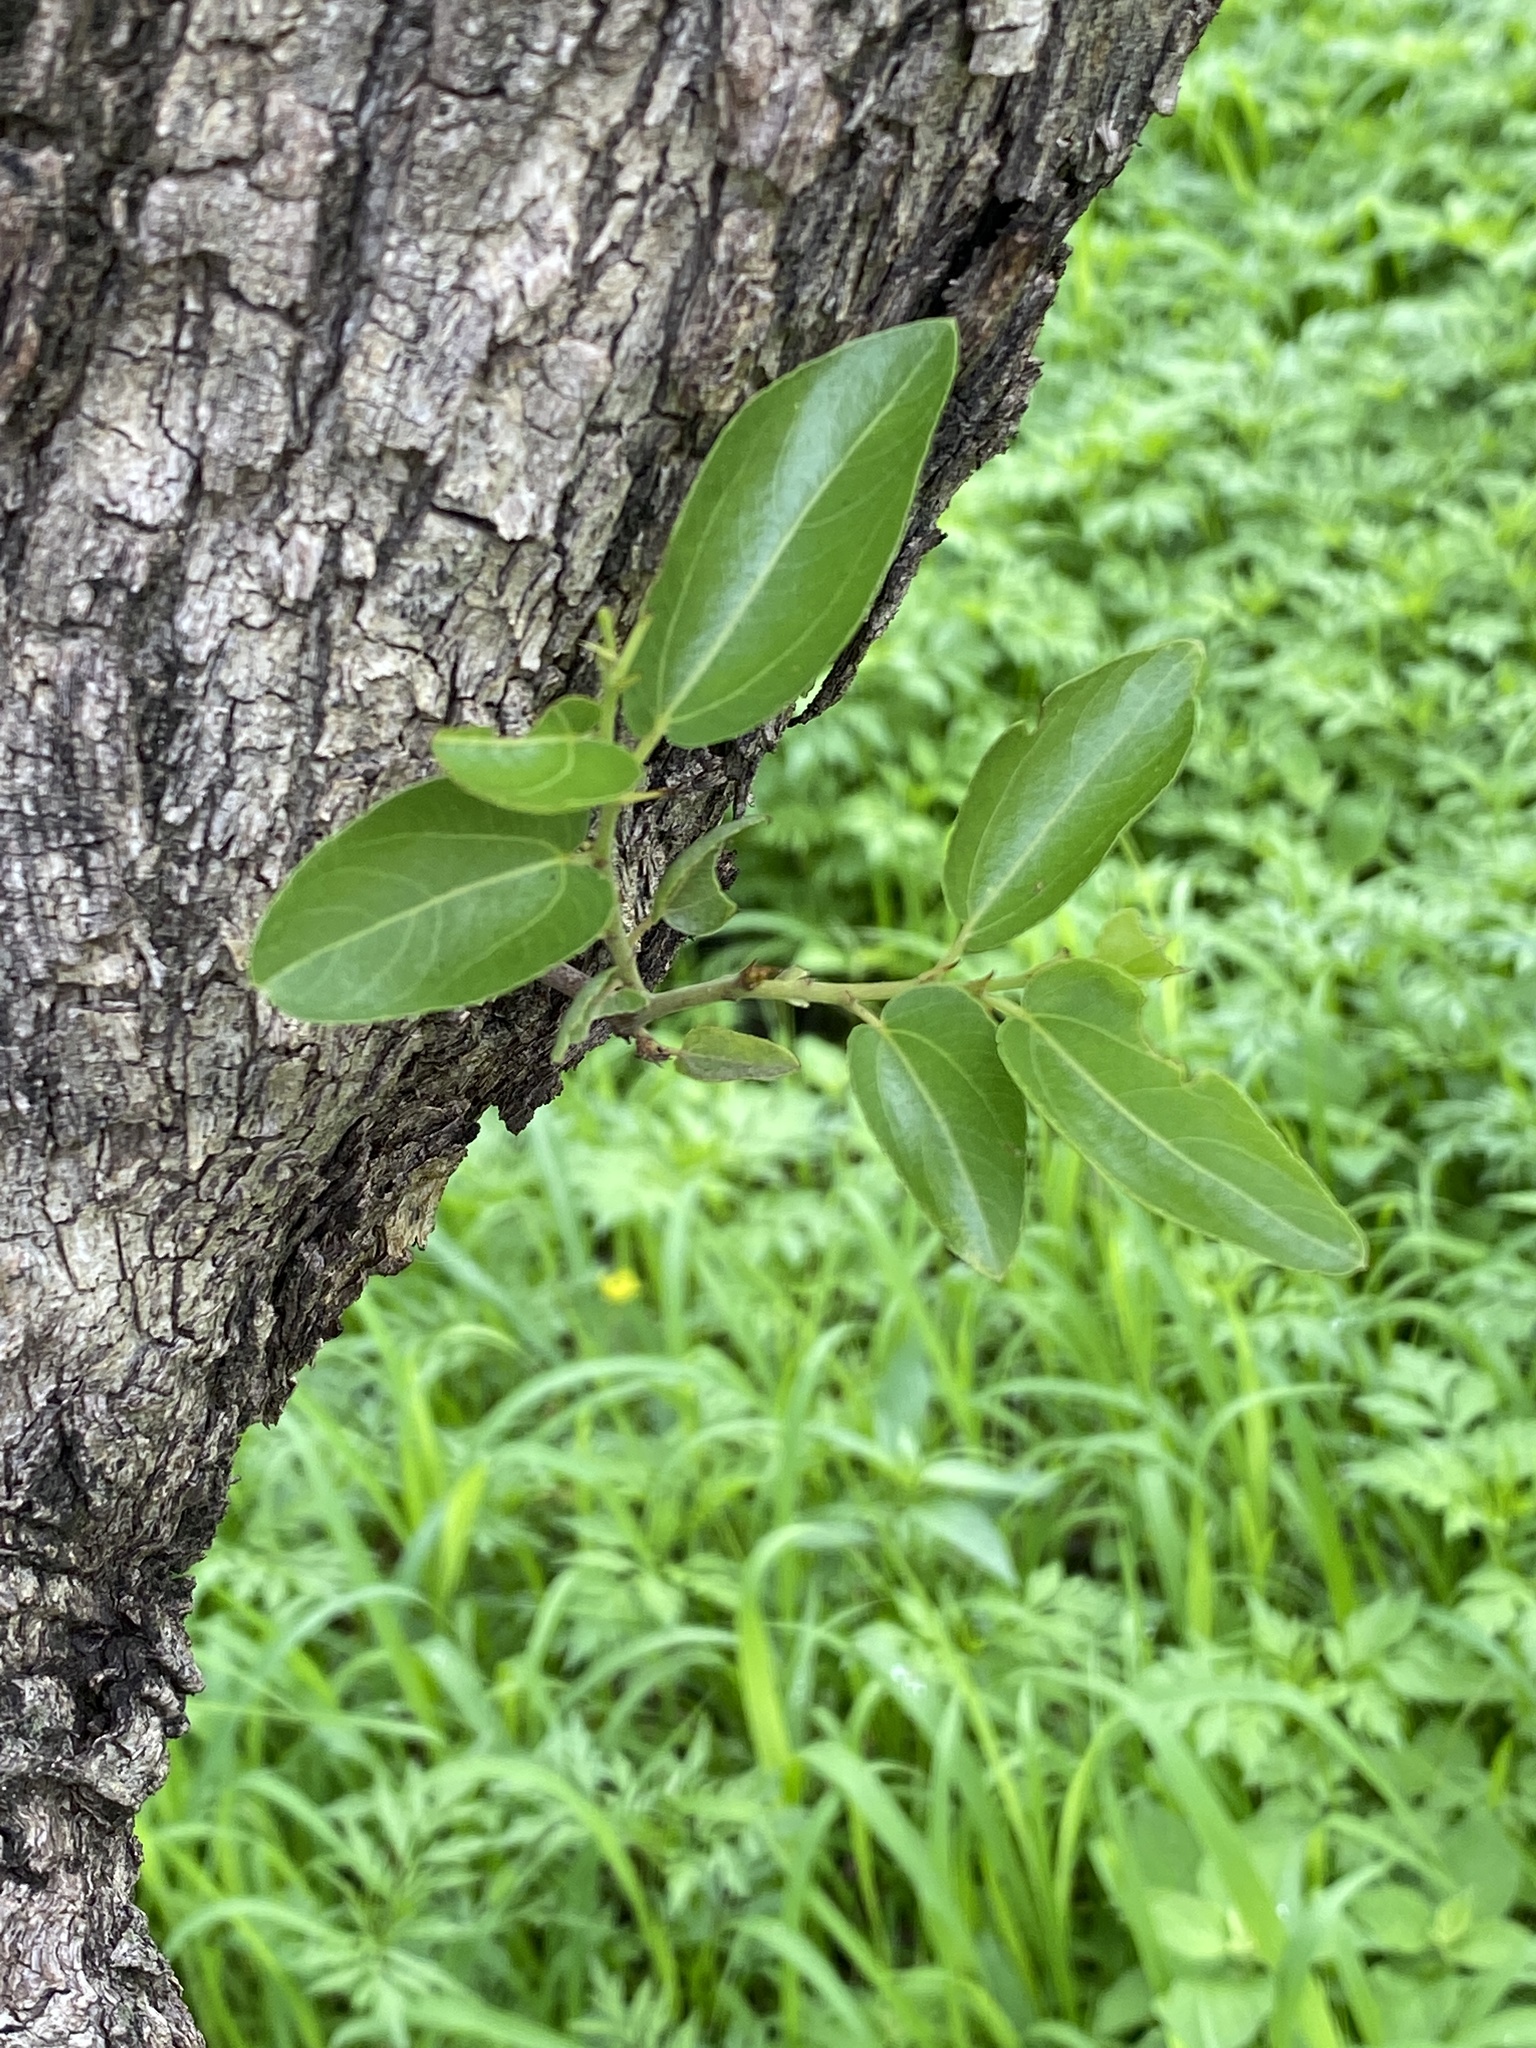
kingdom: Plantae
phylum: Tracheophyta
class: Magnoliopsida
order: Rosales
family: Rhamnaceae
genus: Ziziphus
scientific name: Ziziphus mucronata
